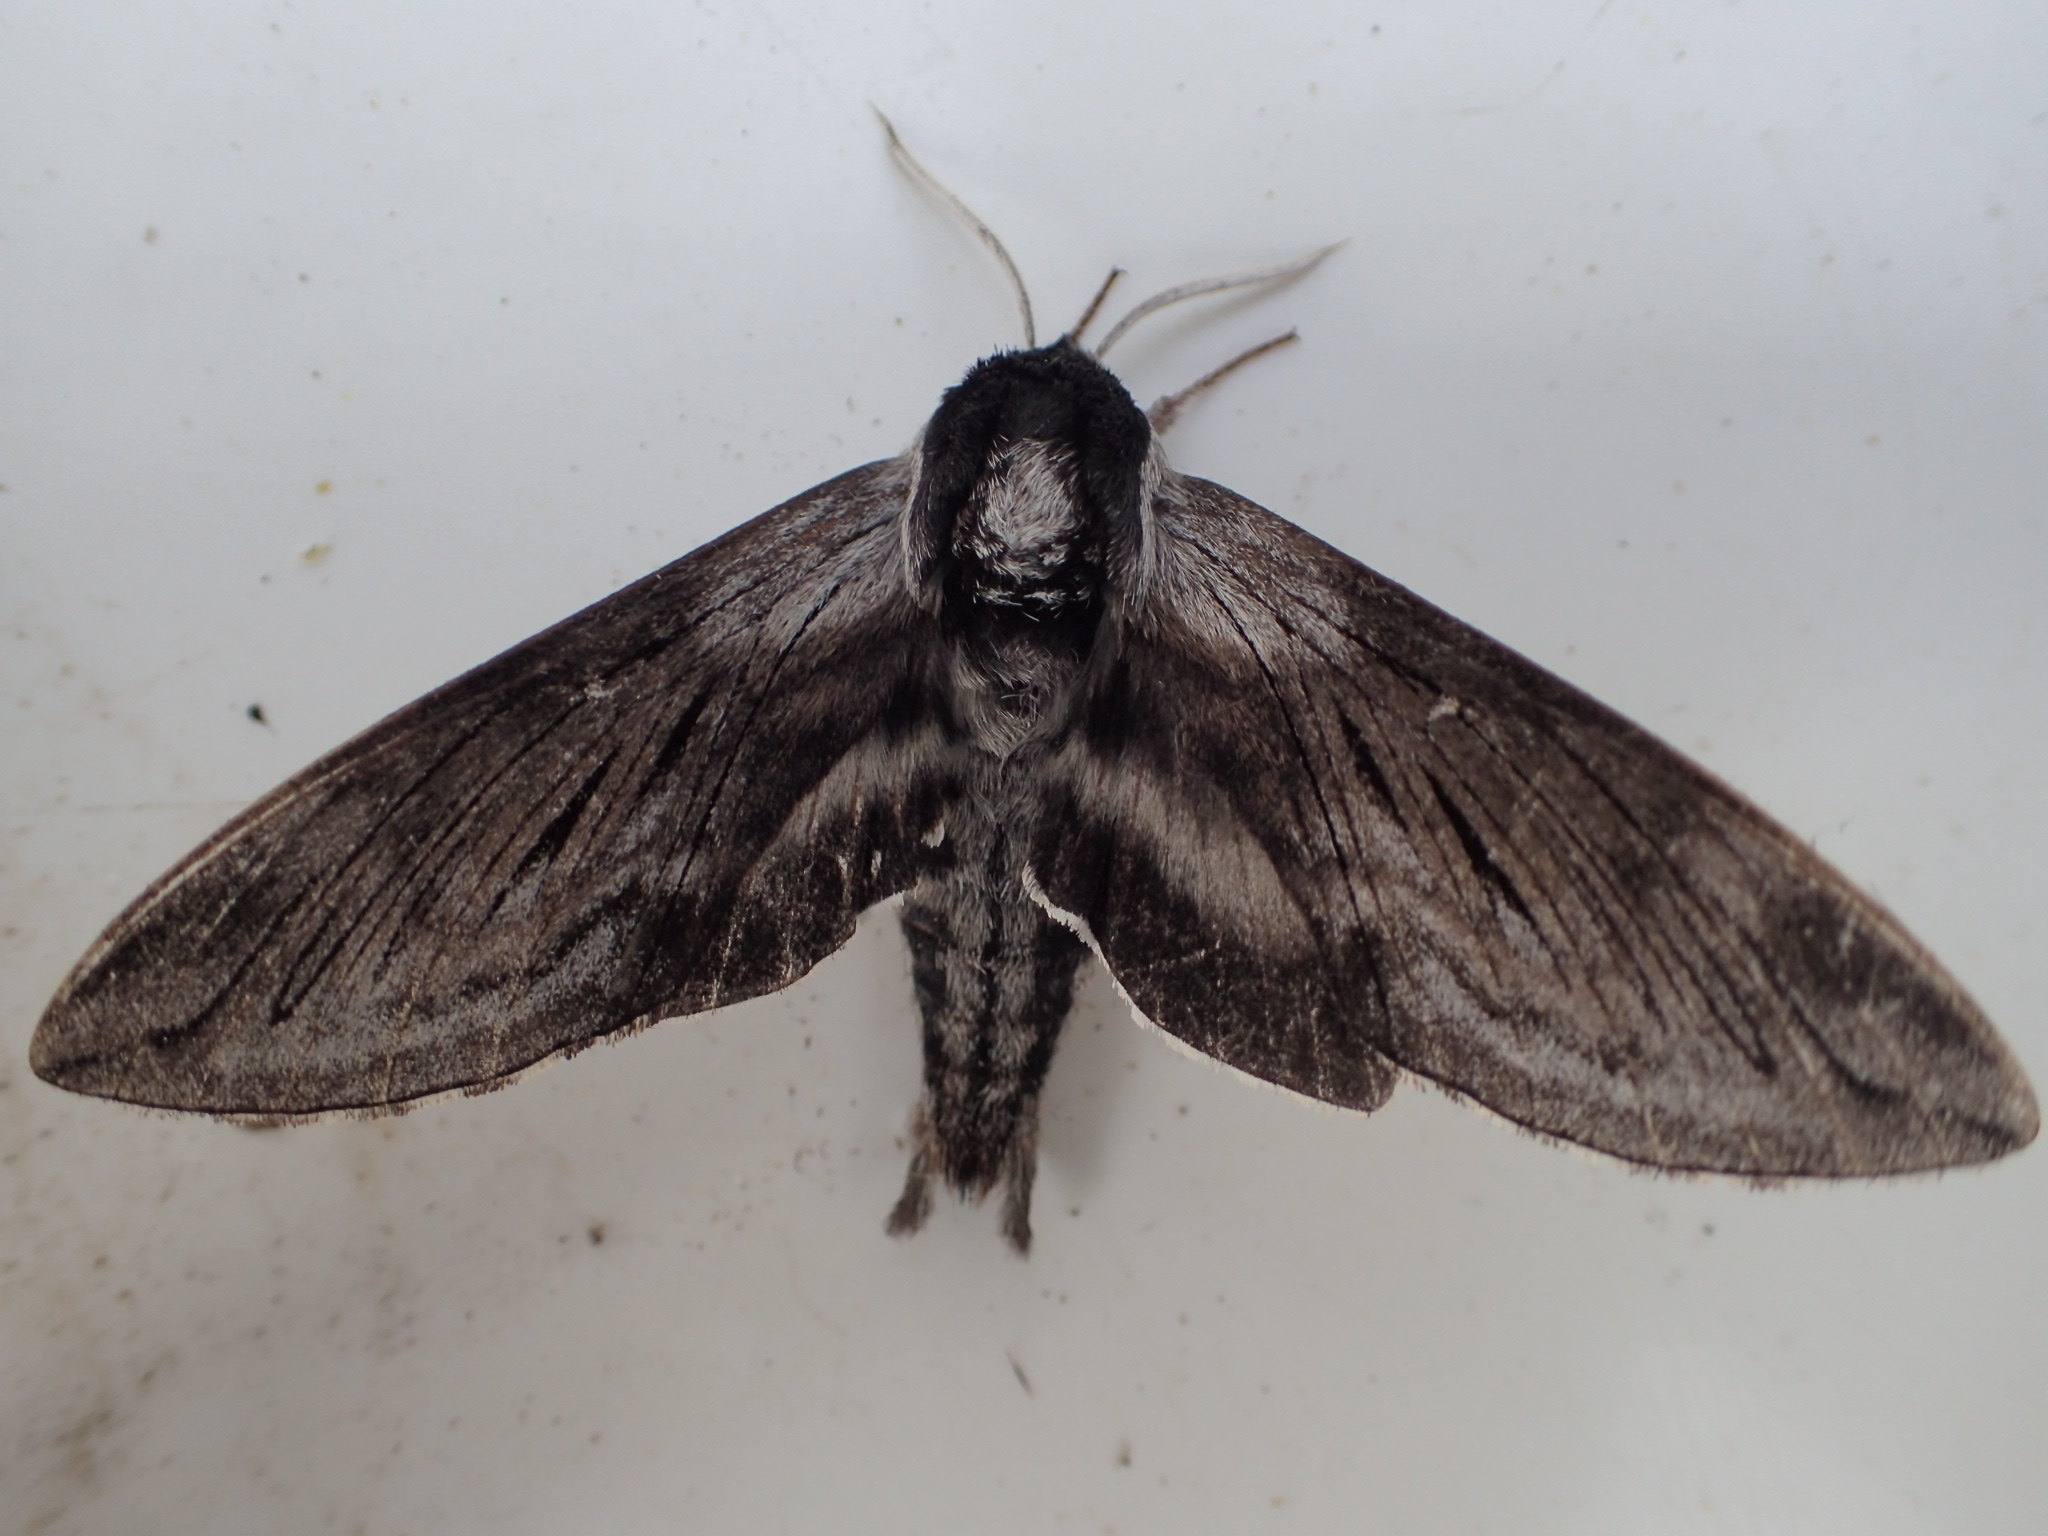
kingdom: Animalia
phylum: Arthropoda
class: Insecta
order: Lepidoptera
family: Sphingidae
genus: Sphinx
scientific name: Sphinx poecila
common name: Northern apple sphinx
